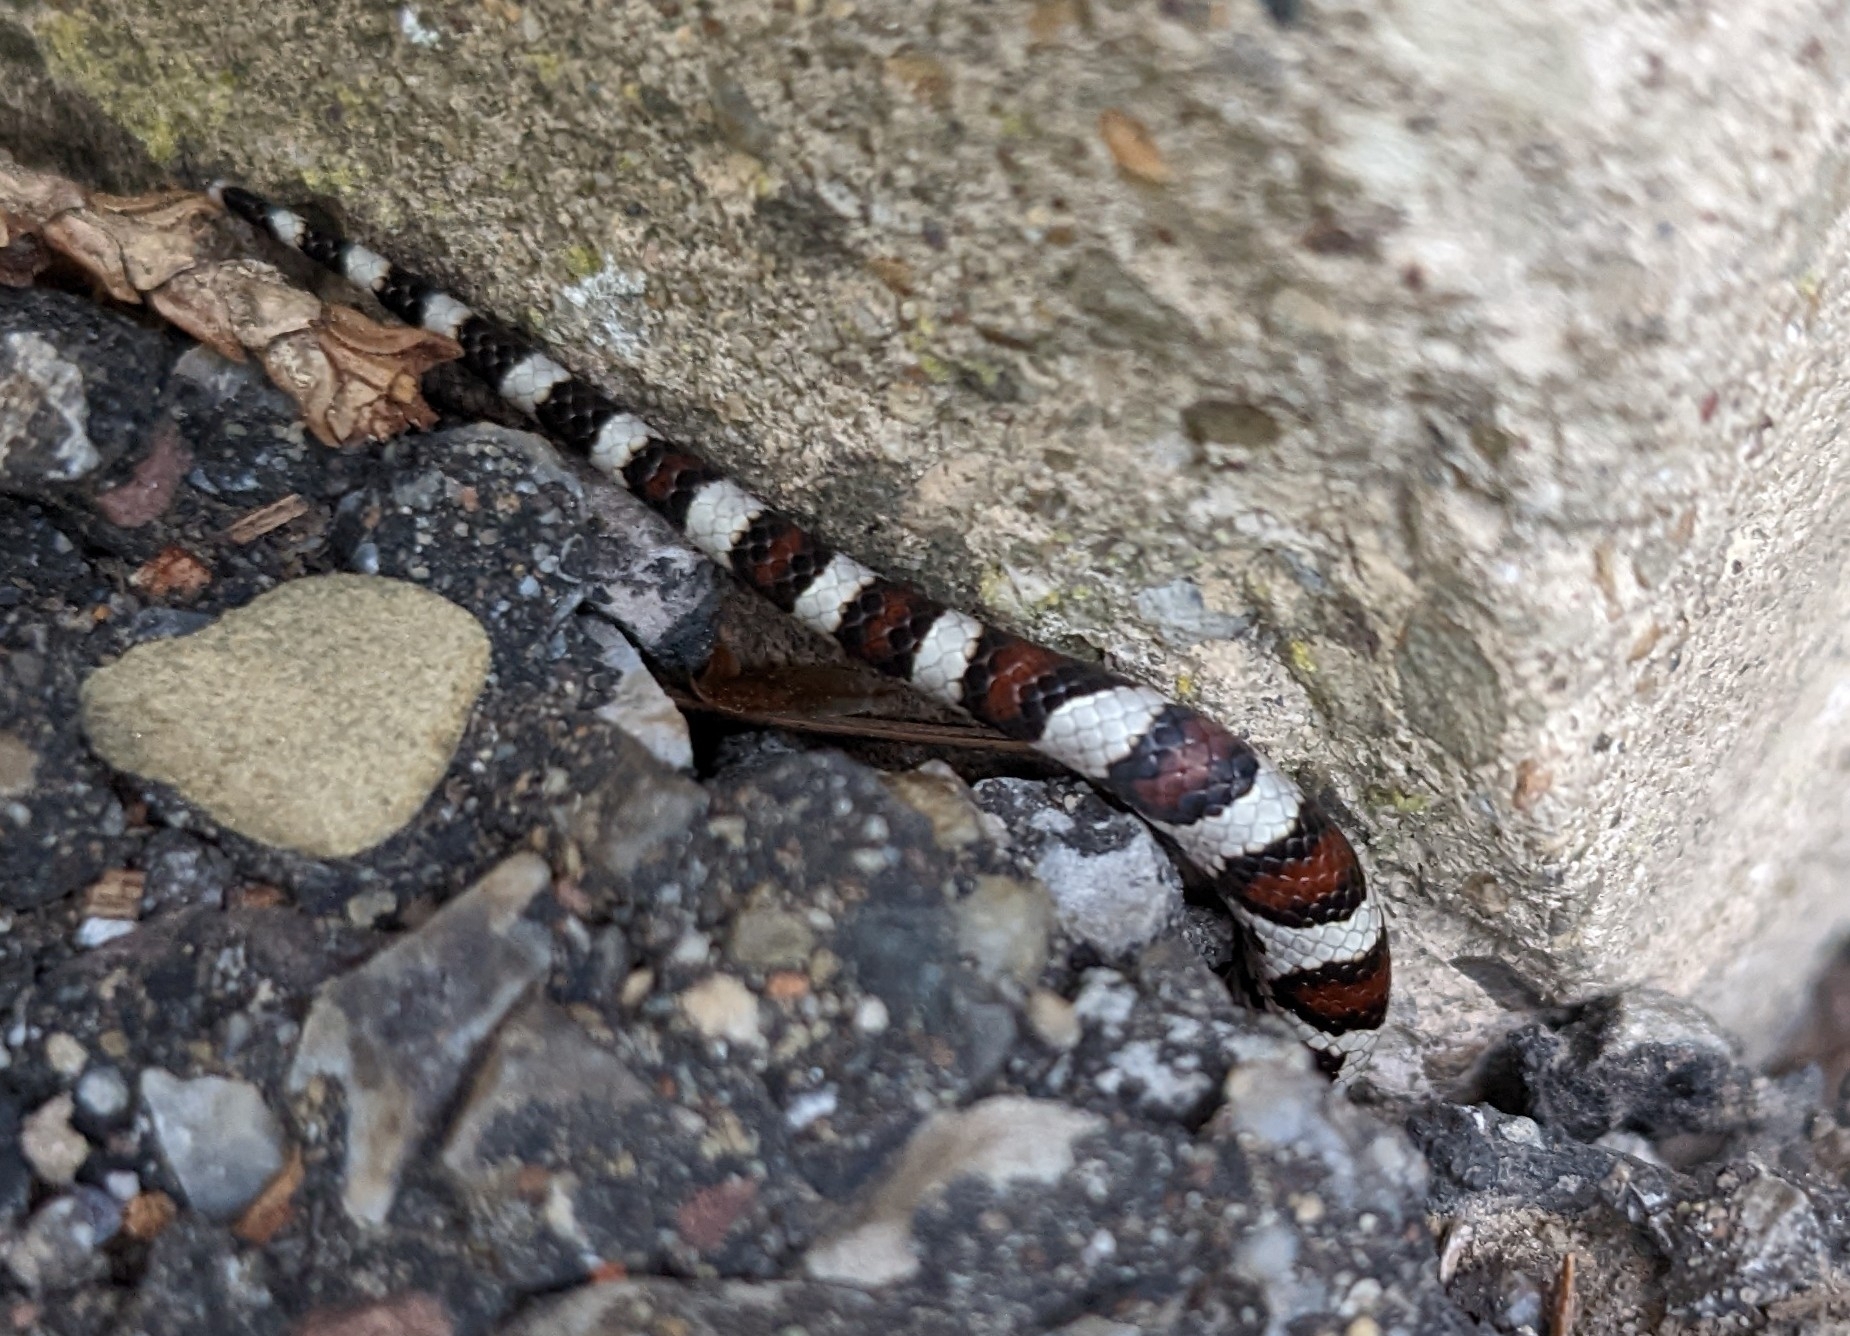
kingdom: Animalia
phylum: Chordata
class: Squamata
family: Colubridae
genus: Lampropeltis
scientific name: Lampropeltis triangulum
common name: Eastern milksnake
